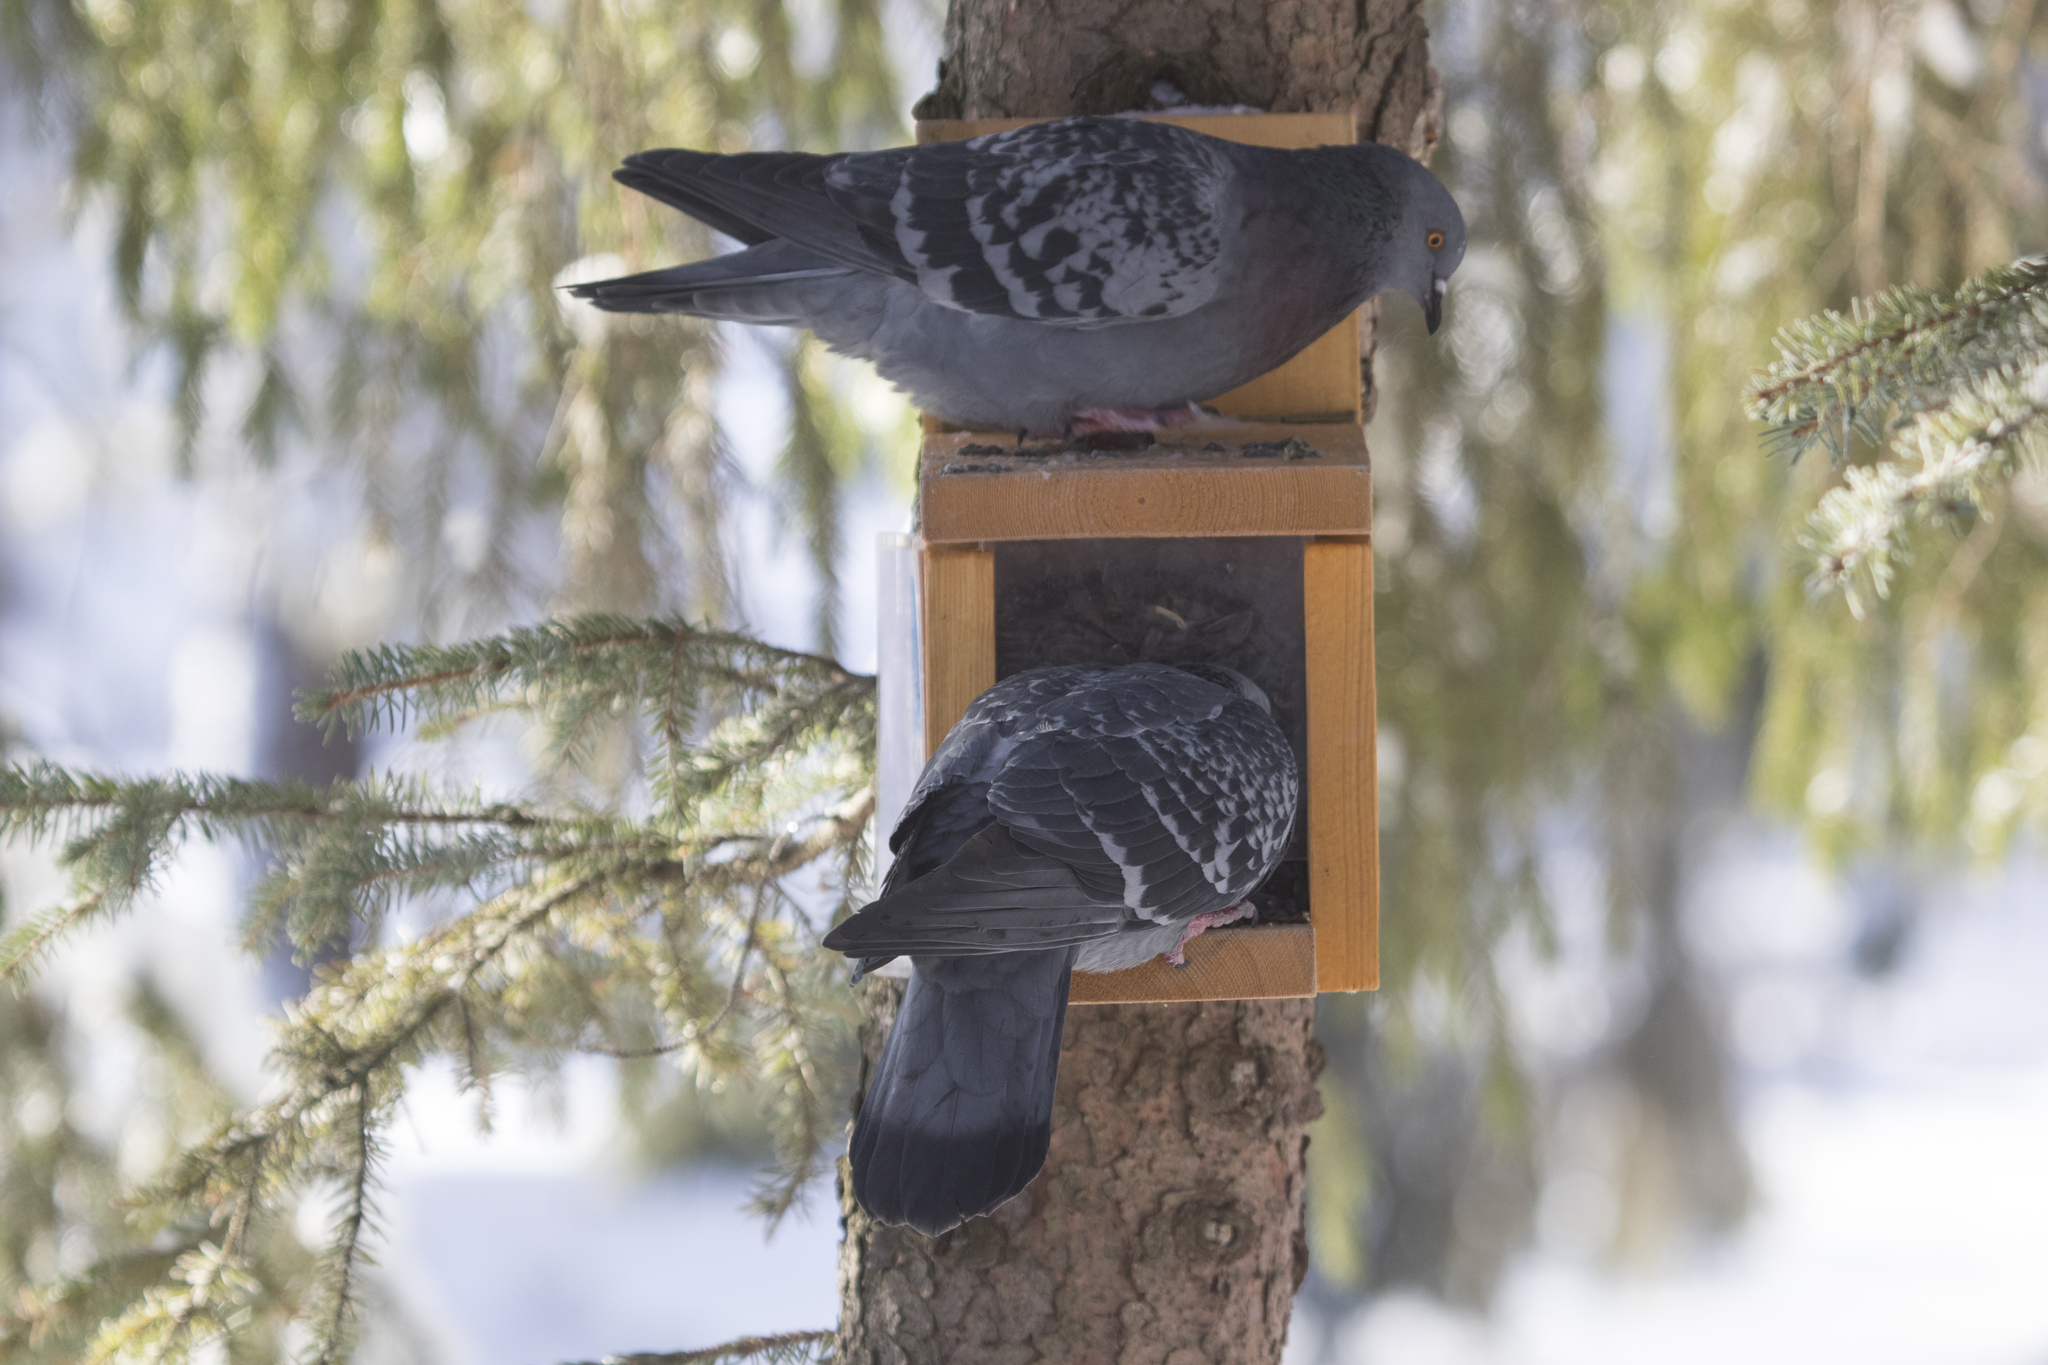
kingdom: Animalia
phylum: Chordata
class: Aves
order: Columbiformes
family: Columbidae
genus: Columba
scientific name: Columba livia
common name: Rock pigeon
